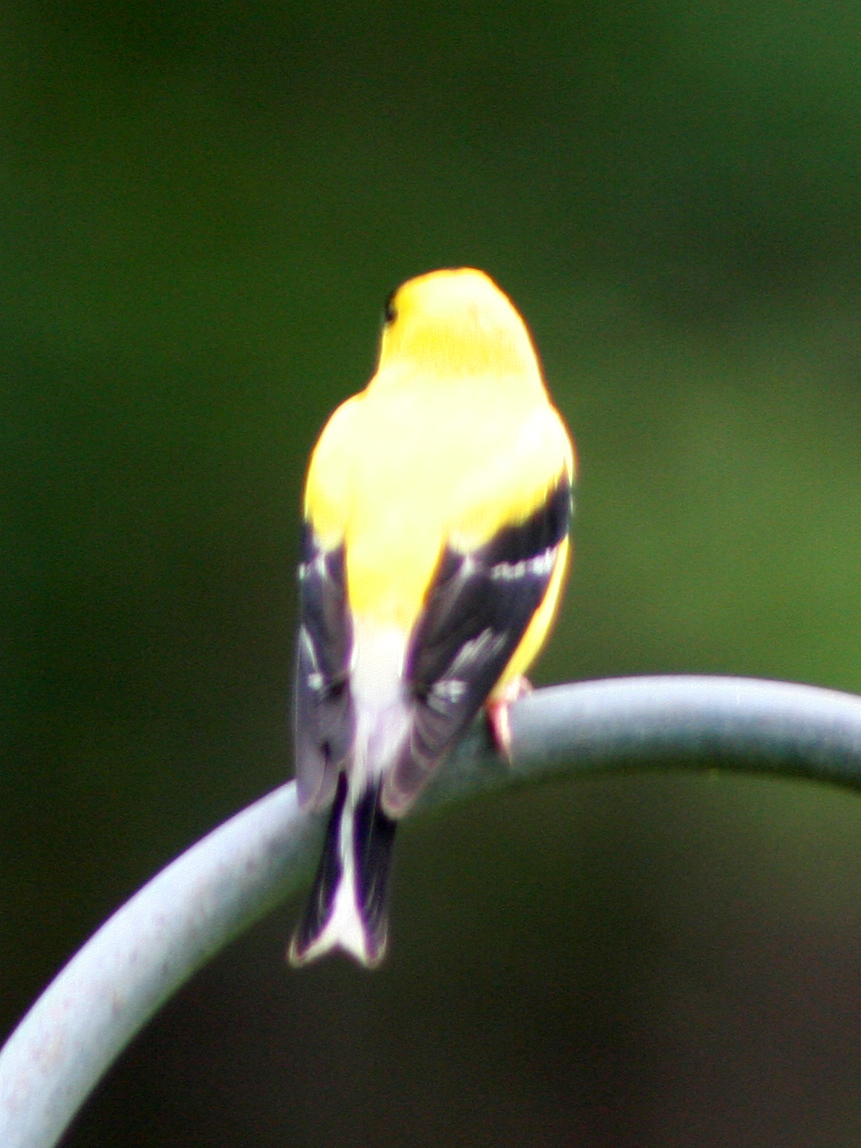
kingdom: Animalia
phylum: Chordata
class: Aves
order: Passeriformes
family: Fringillidae
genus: Spinus
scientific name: Spinus tristis
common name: American goldfinch
